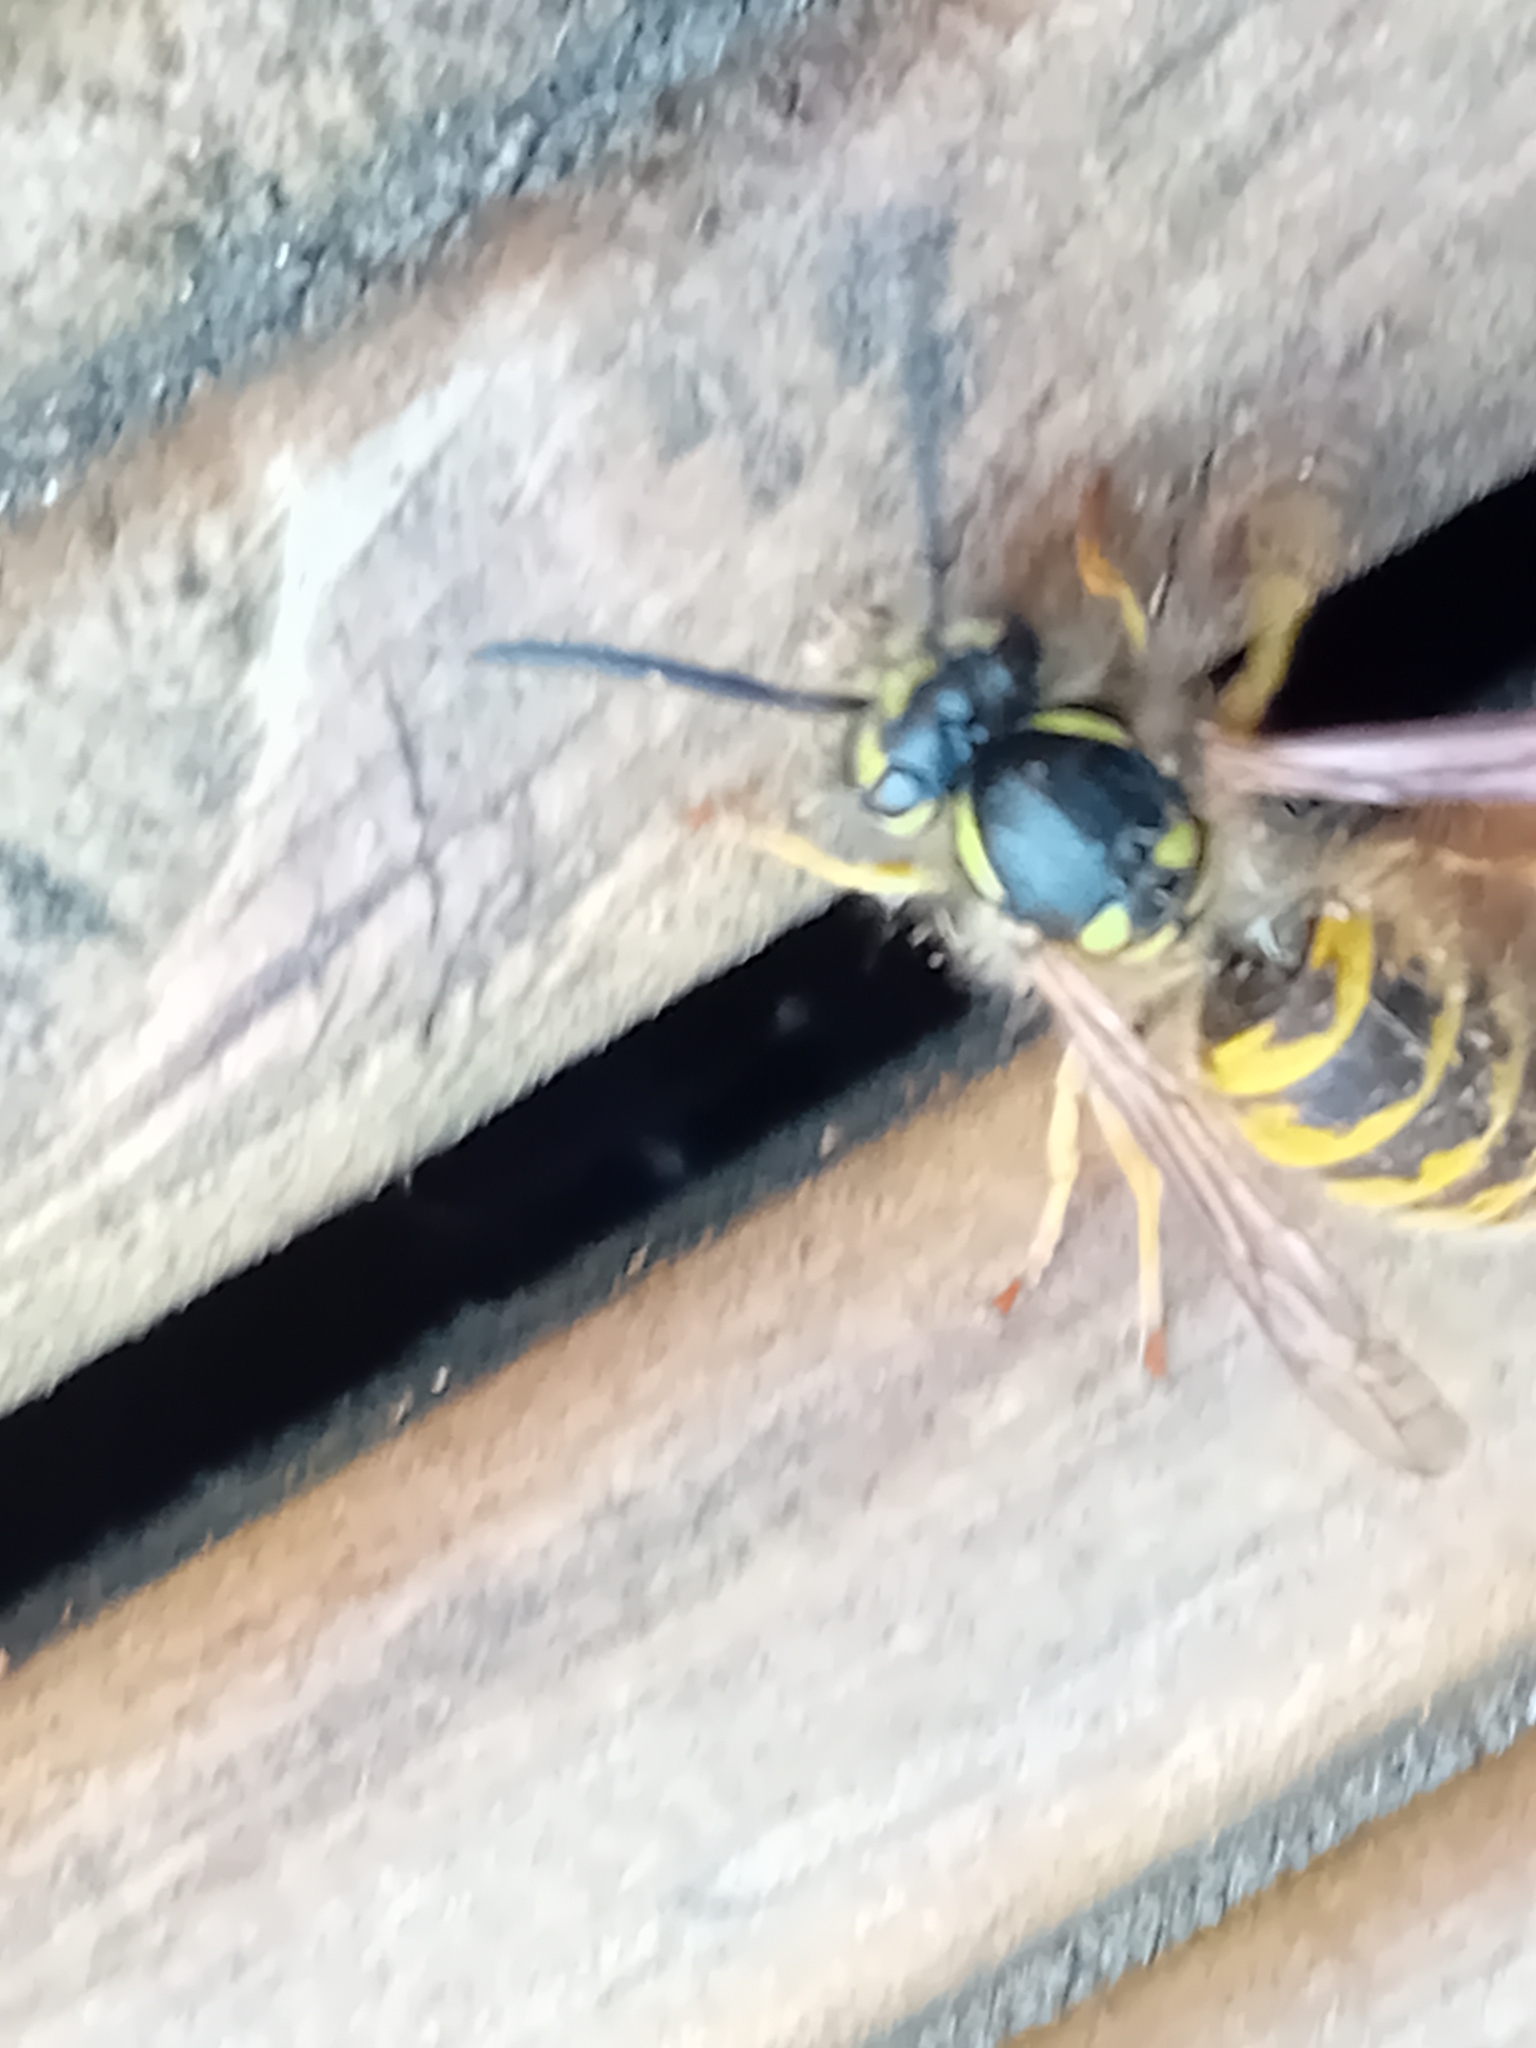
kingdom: Animalia
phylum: Arthropoda
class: Insecta
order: Hymenoptera
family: Vespidae
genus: Vespula
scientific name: Vespula vulgaris
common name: Common wasp
